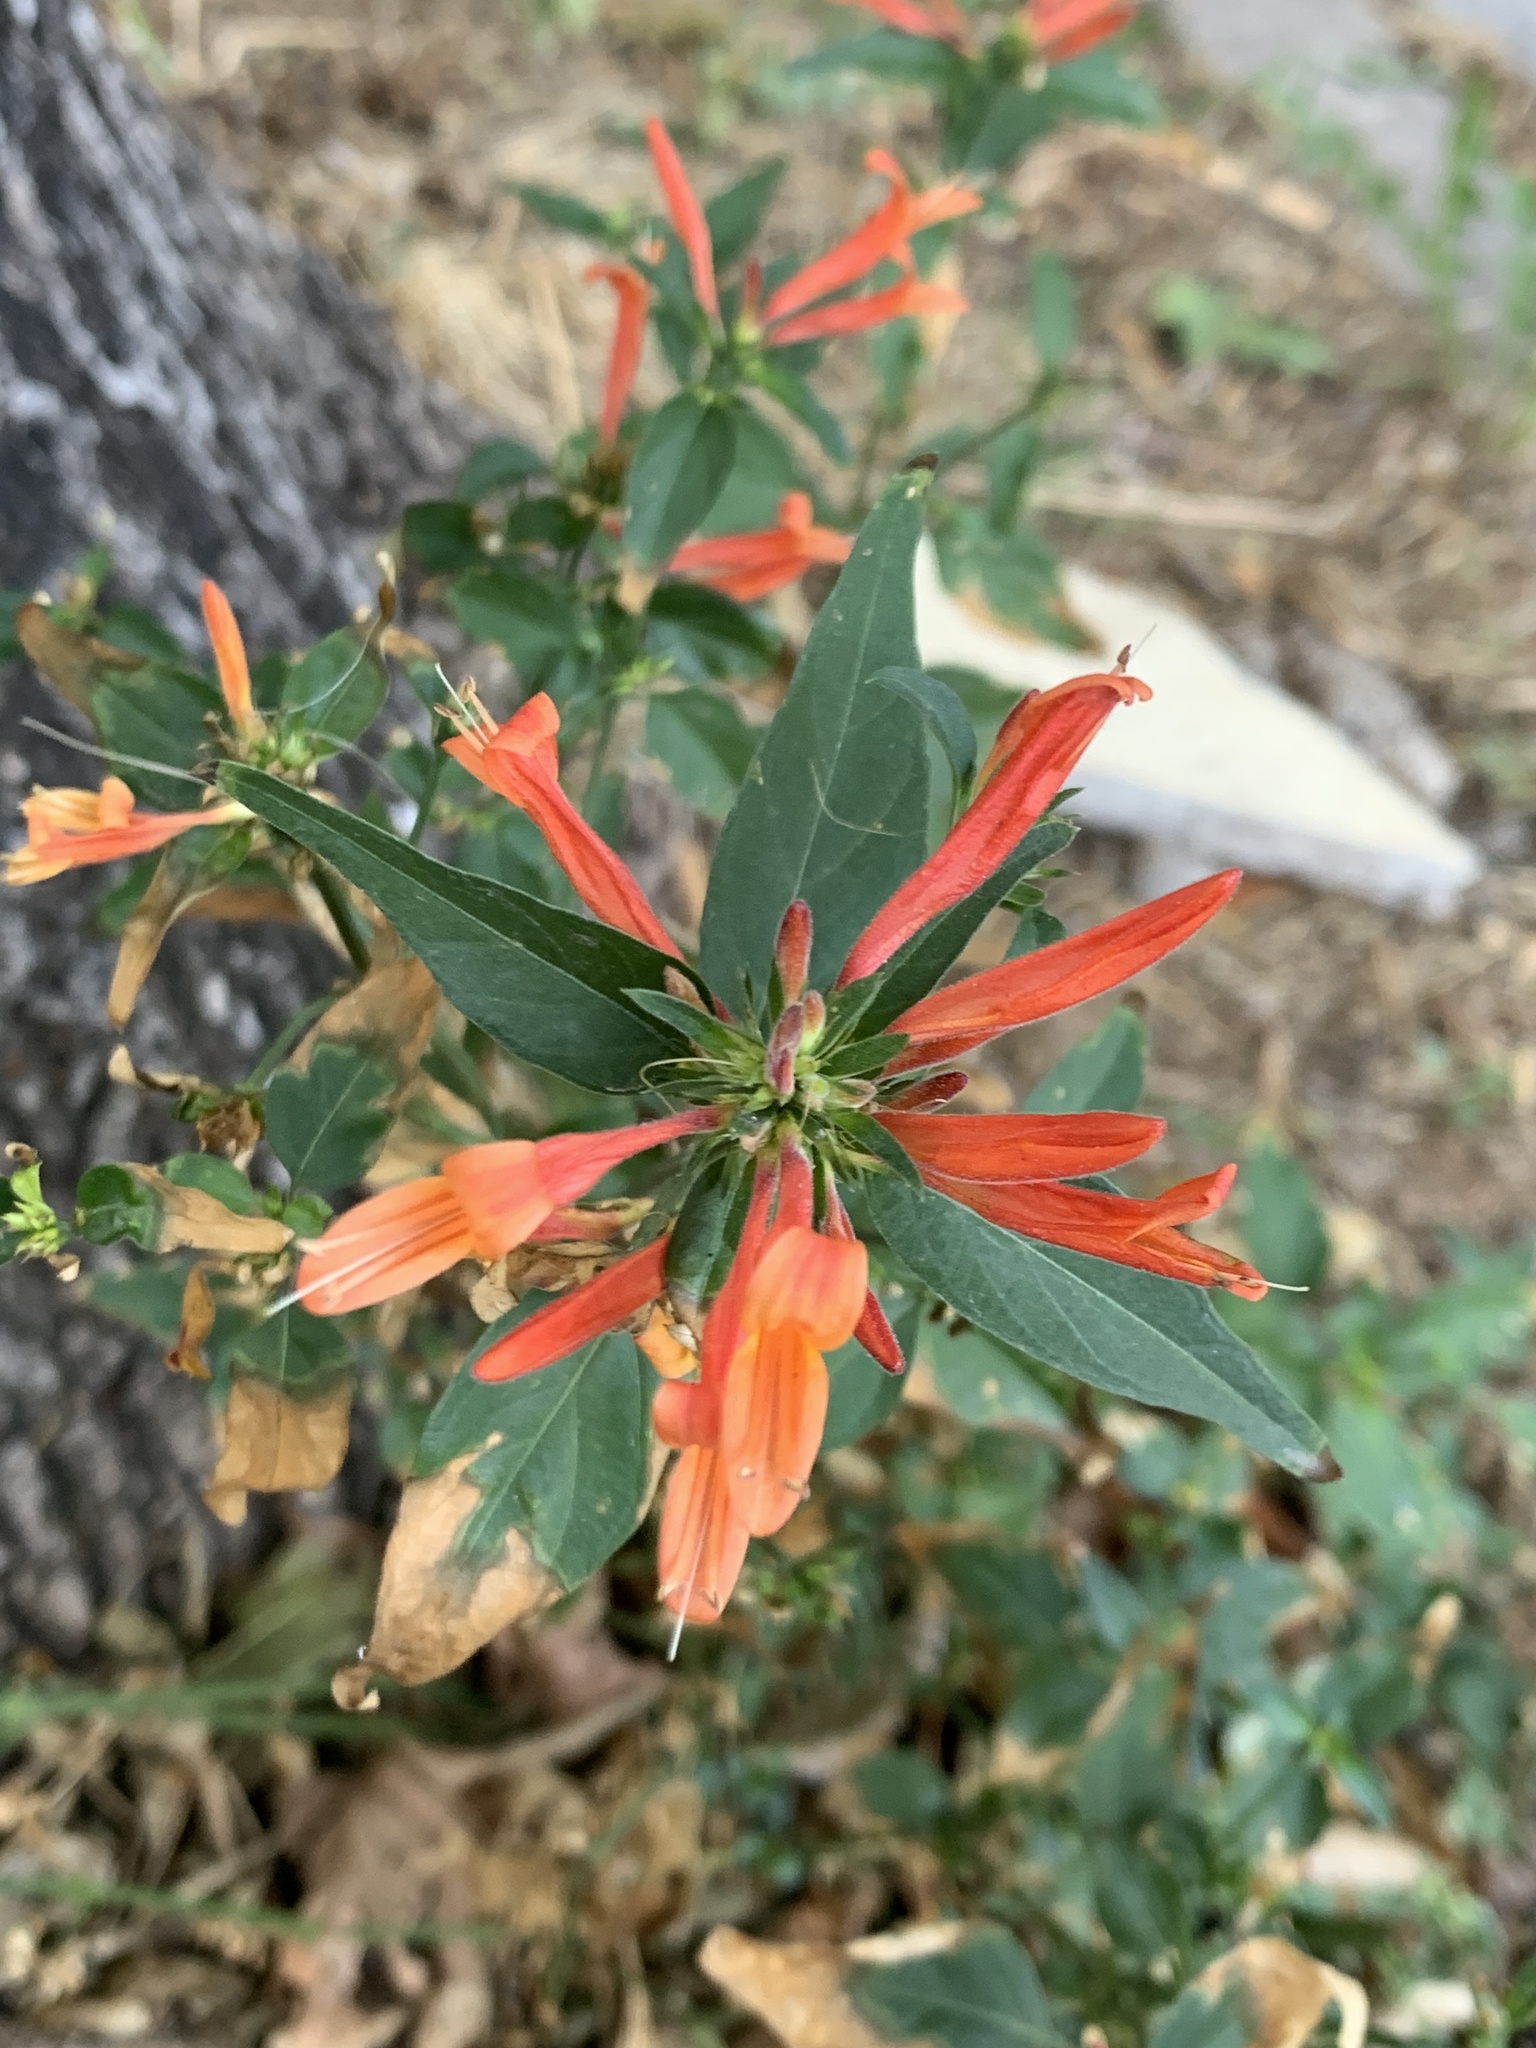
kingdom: Plantae
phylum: Tracheophyta
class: Magnoliopsida
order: Lamiales
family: Acanthaceae
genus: Dicliptera
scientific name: Dicliptera squarrosa
